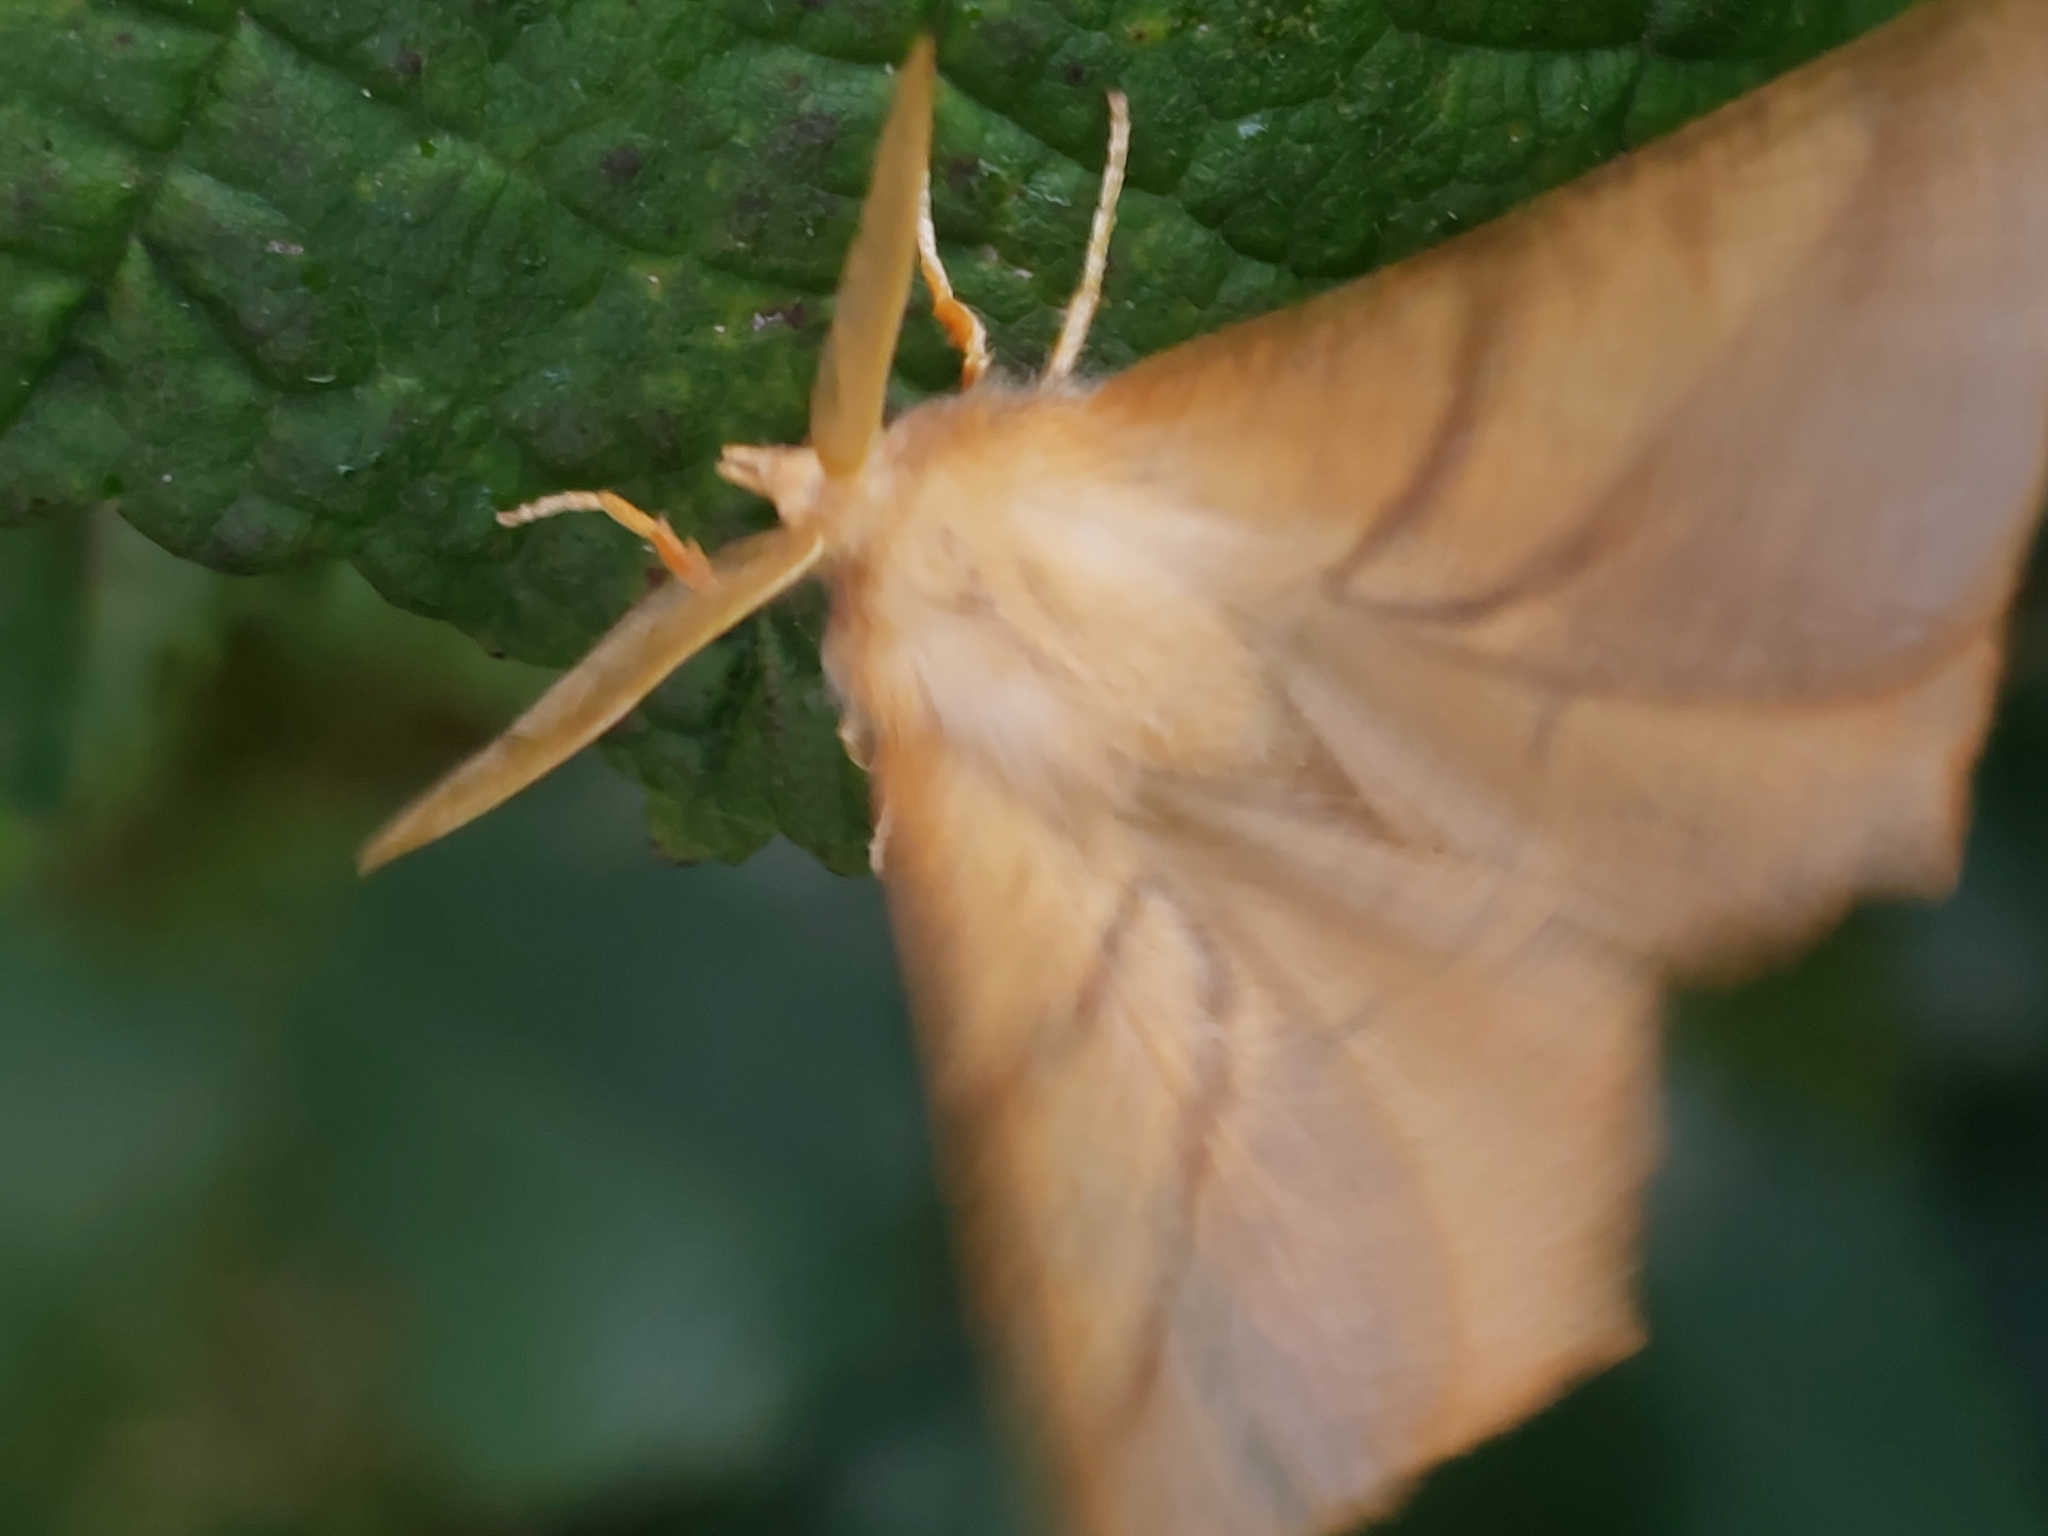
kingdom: Animalia
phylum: Arthropoda
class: Insecta
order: Lepidoptera
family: Geometridae
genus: Ennomos
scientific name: Ennomos fuscantaria
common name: Dusky thorn
